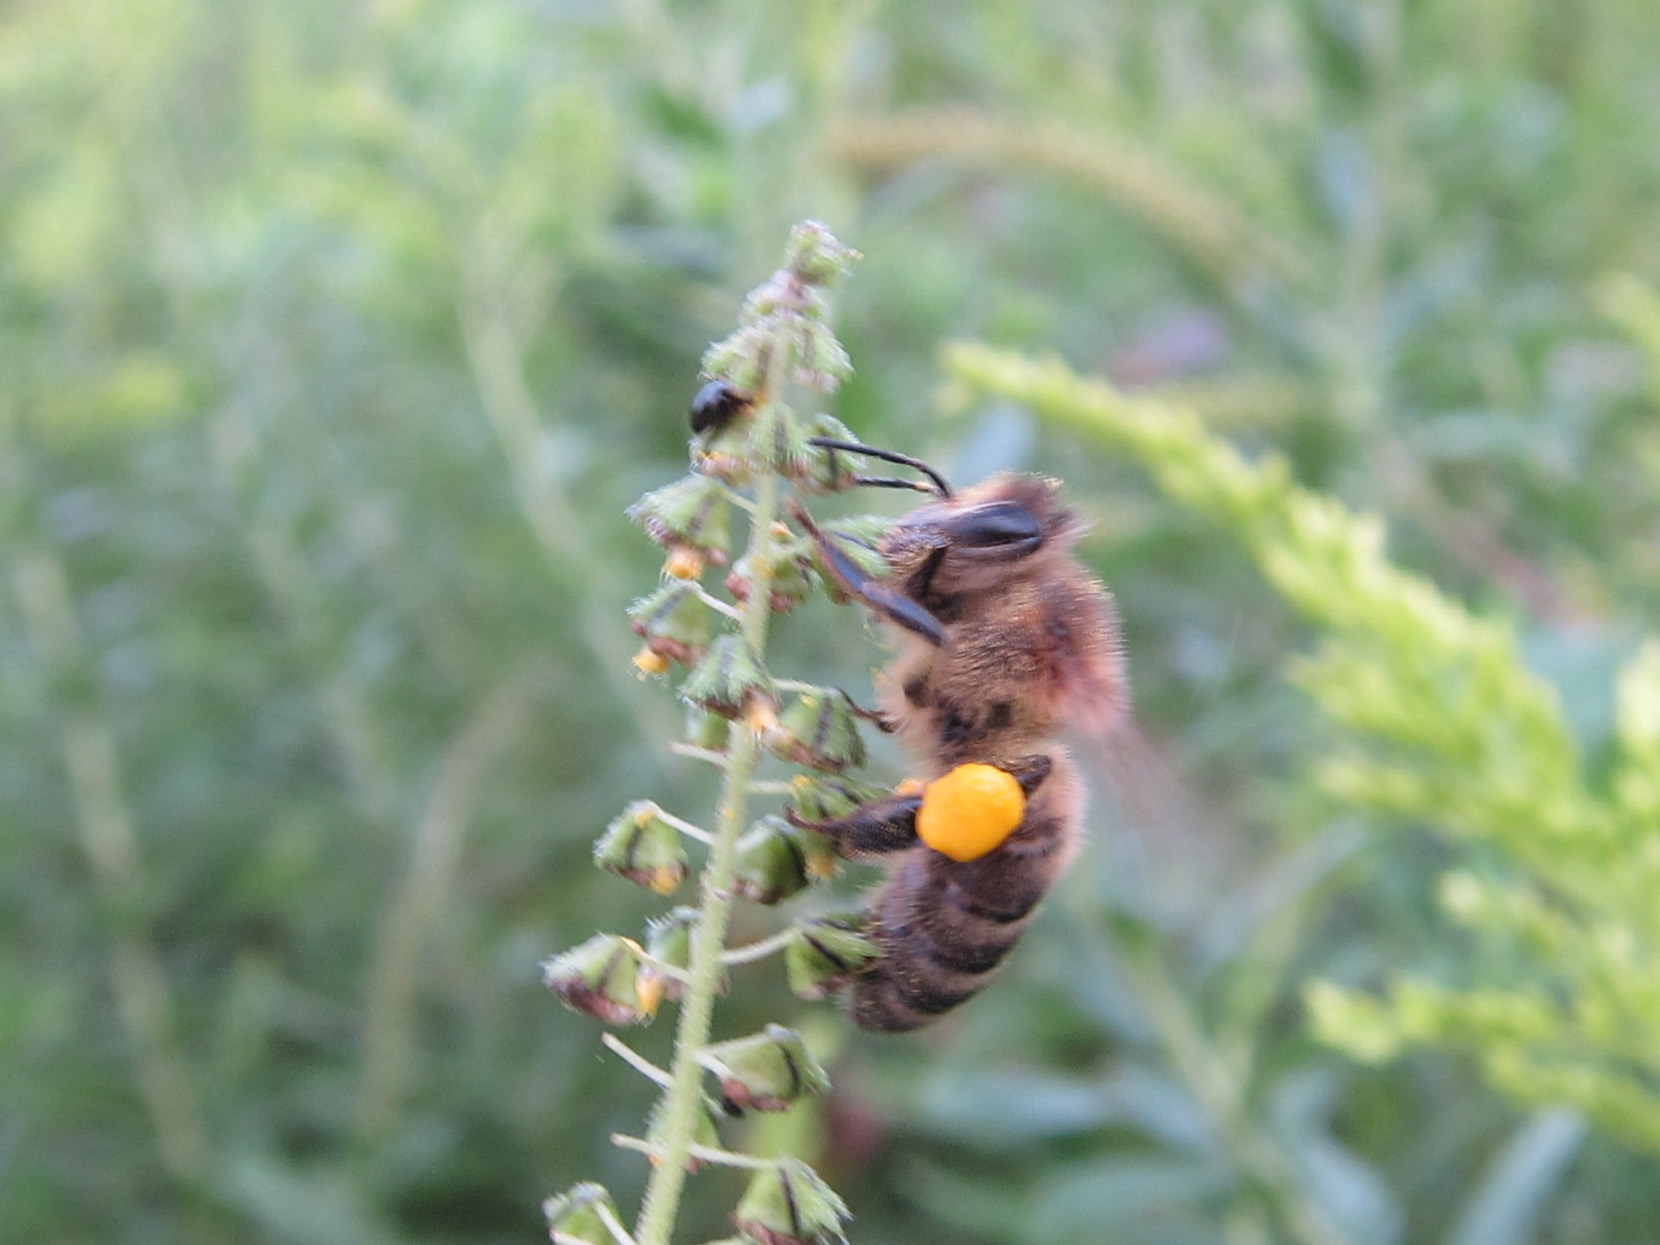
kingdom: Animalia
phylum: Arthropoda
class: Insecta
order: Hymenoptera
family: Apidae
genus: Apis
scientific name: Apis mellifera
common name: Honey bee
